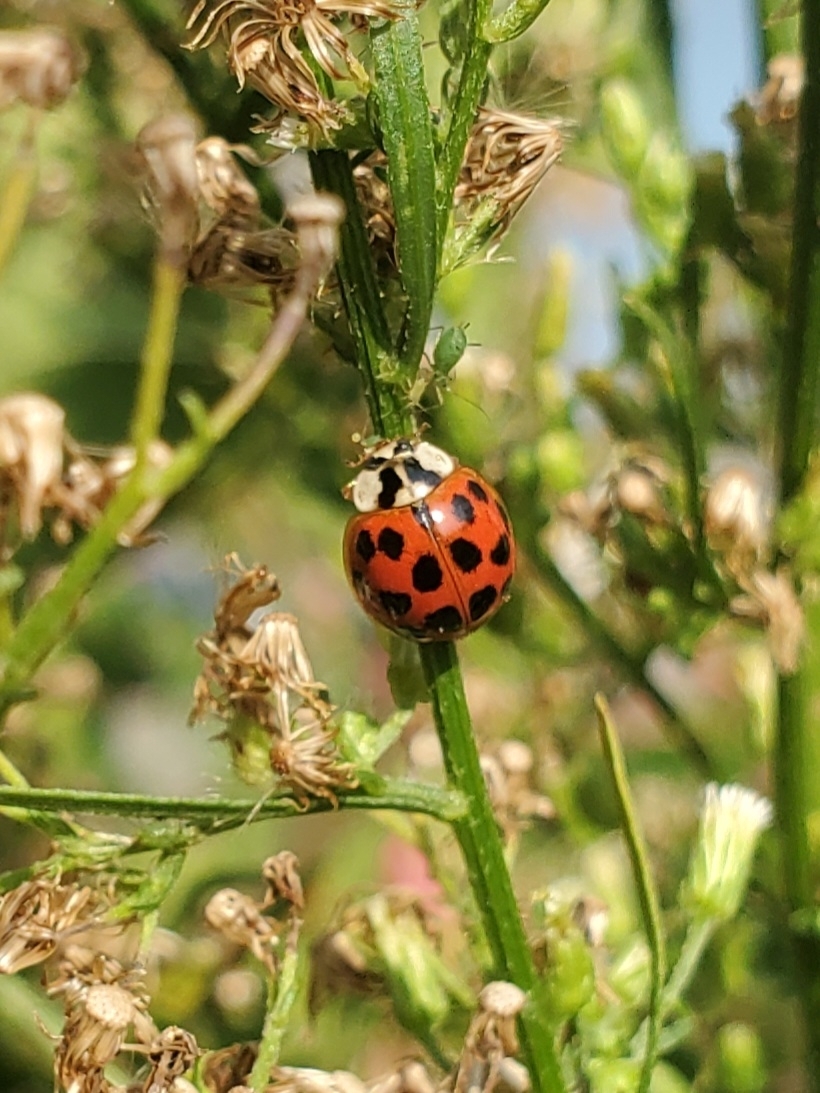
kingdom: Animalia
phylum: Arthropoda
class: Insecta
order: Coleoptera
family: Coccinellidae
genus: Harmonia
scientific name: Harmonia axyridis
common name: Harlequin ladybird
